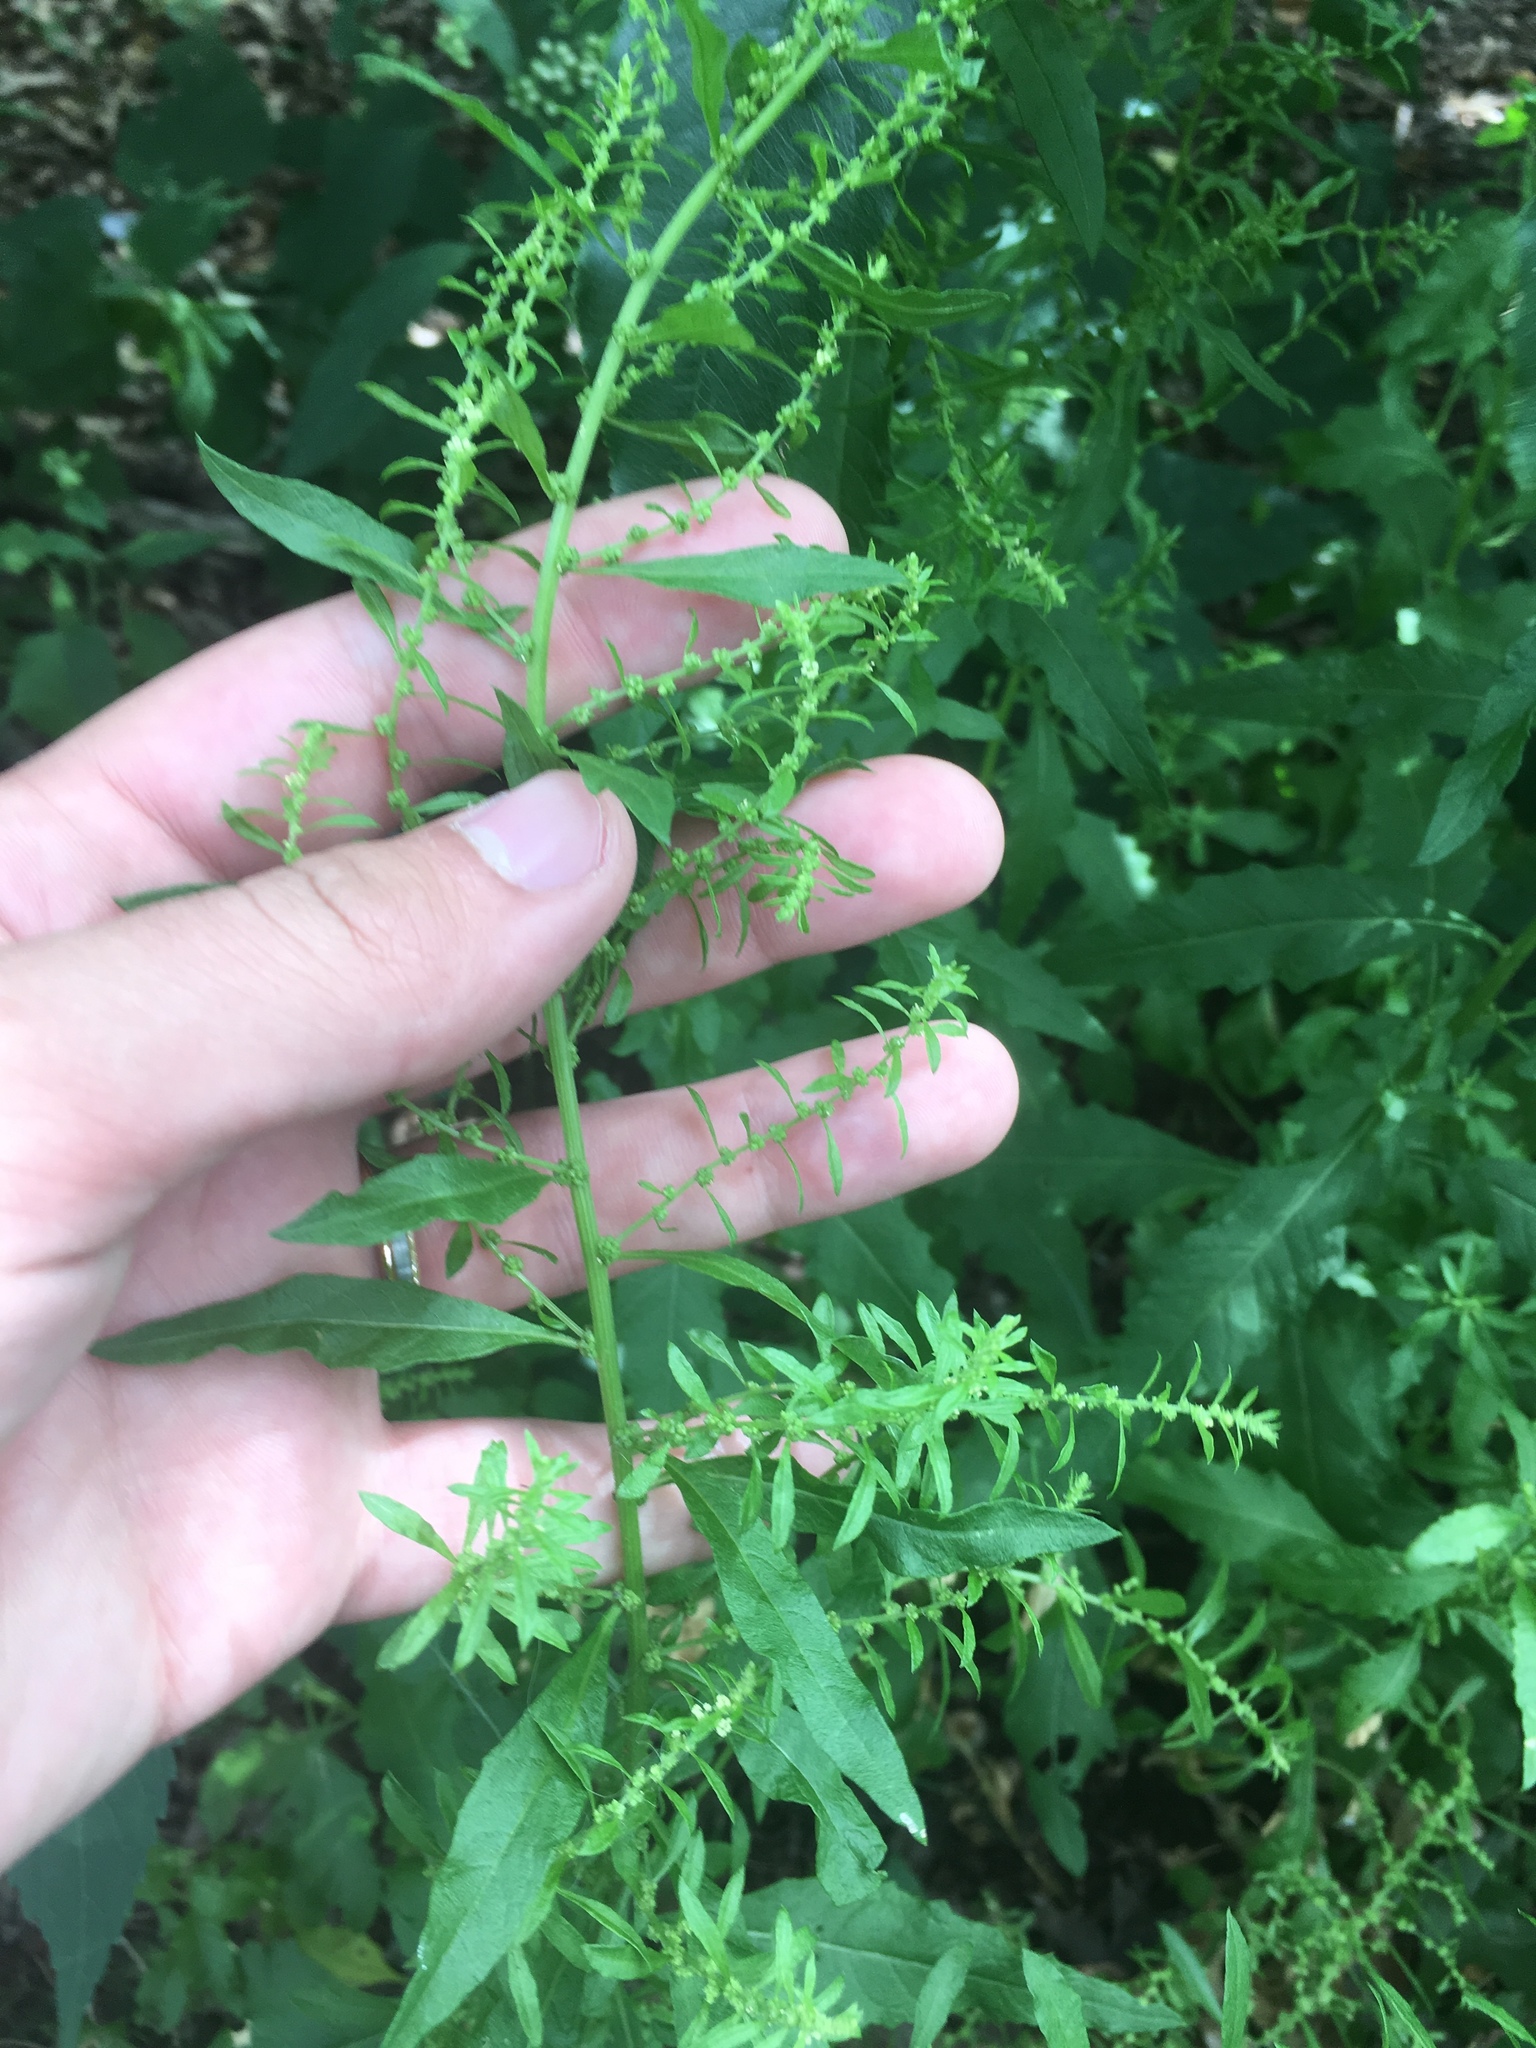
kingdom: Plantae
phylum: Tracheophyta
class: Magnoliopsida
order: Caryophyllales
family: Amaranthaceae
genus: Dysphania
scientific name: Dysphania ambrosioides
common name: Wormseed
